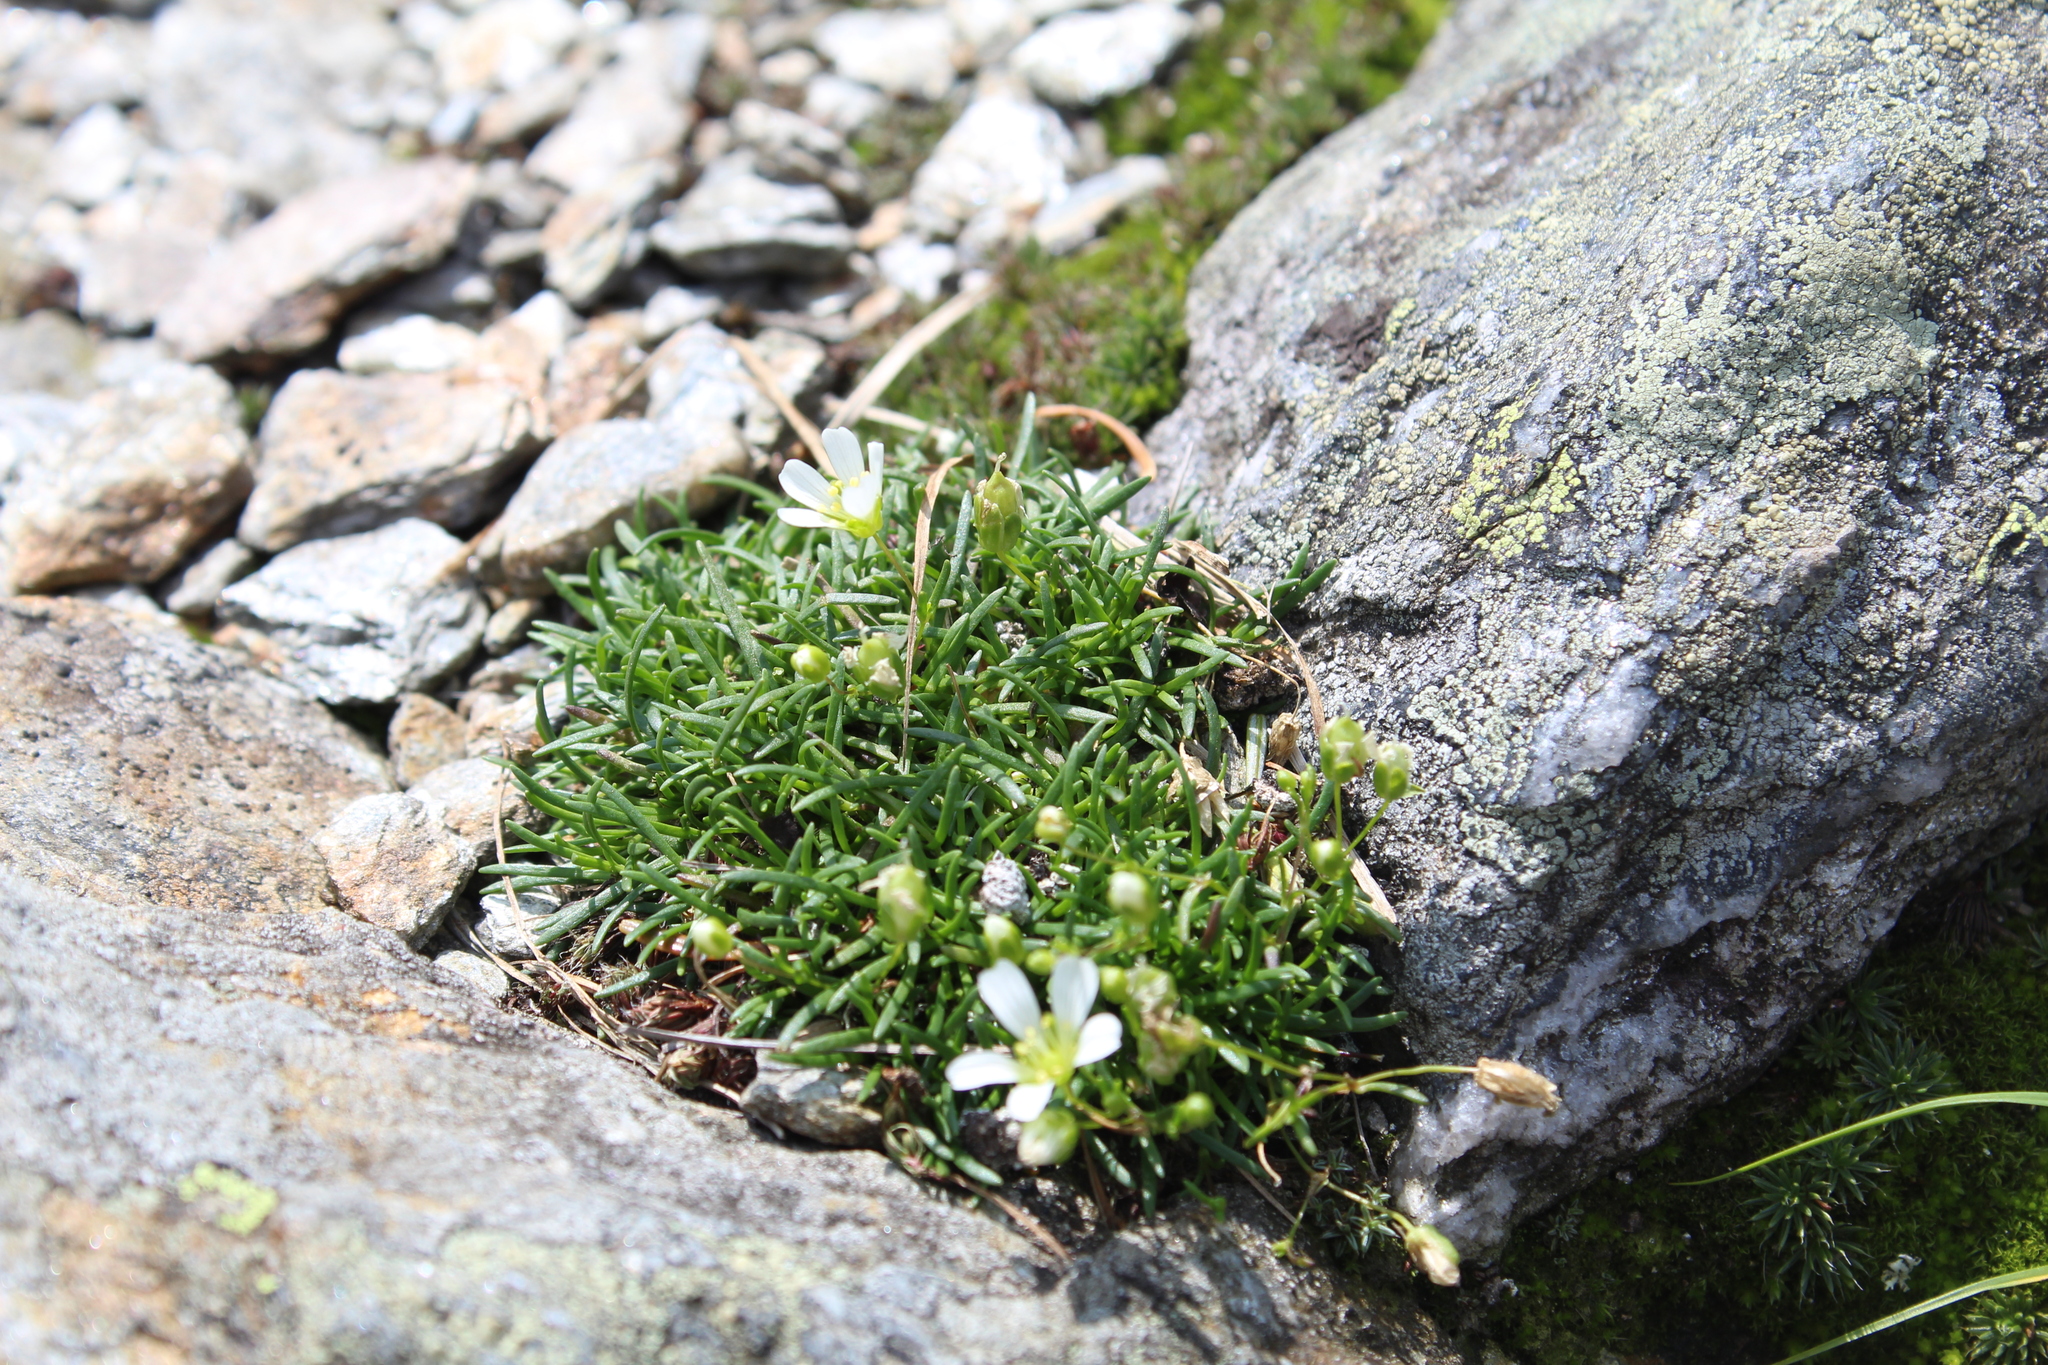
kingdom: Plantae
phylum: Tracheophyta
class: Magnoliopsida
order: Caryophyllales
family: Caryophyllaceae
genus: Geocarpon
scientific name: Geocarpon groenlandicum
